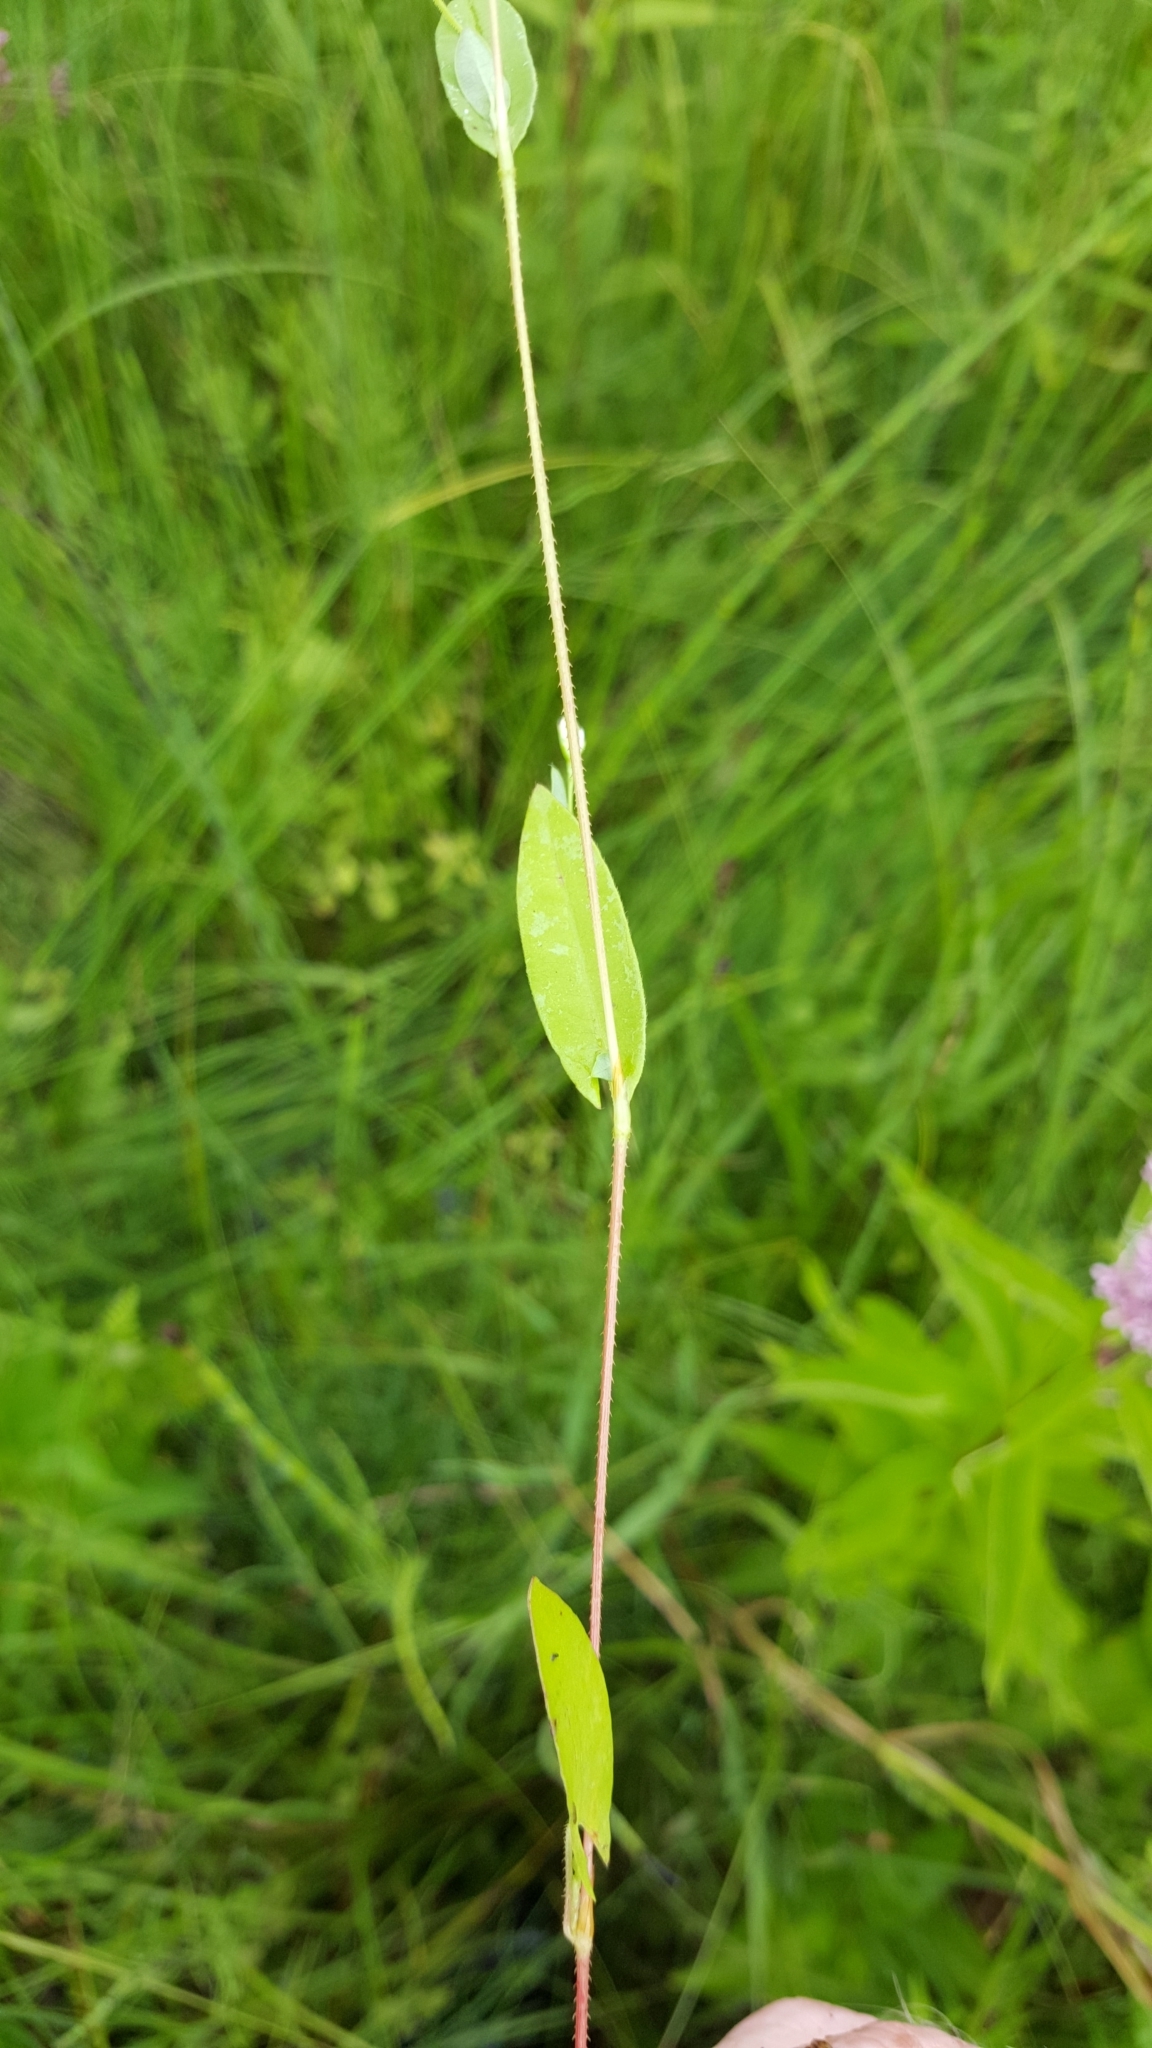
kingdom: Plantae
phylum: Tracheophyta
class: Magnoliopsida
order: Caryophyllales
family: Polygonaceae
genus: Persicaria
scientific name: Persicaria sagittata
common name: American tearthumb
